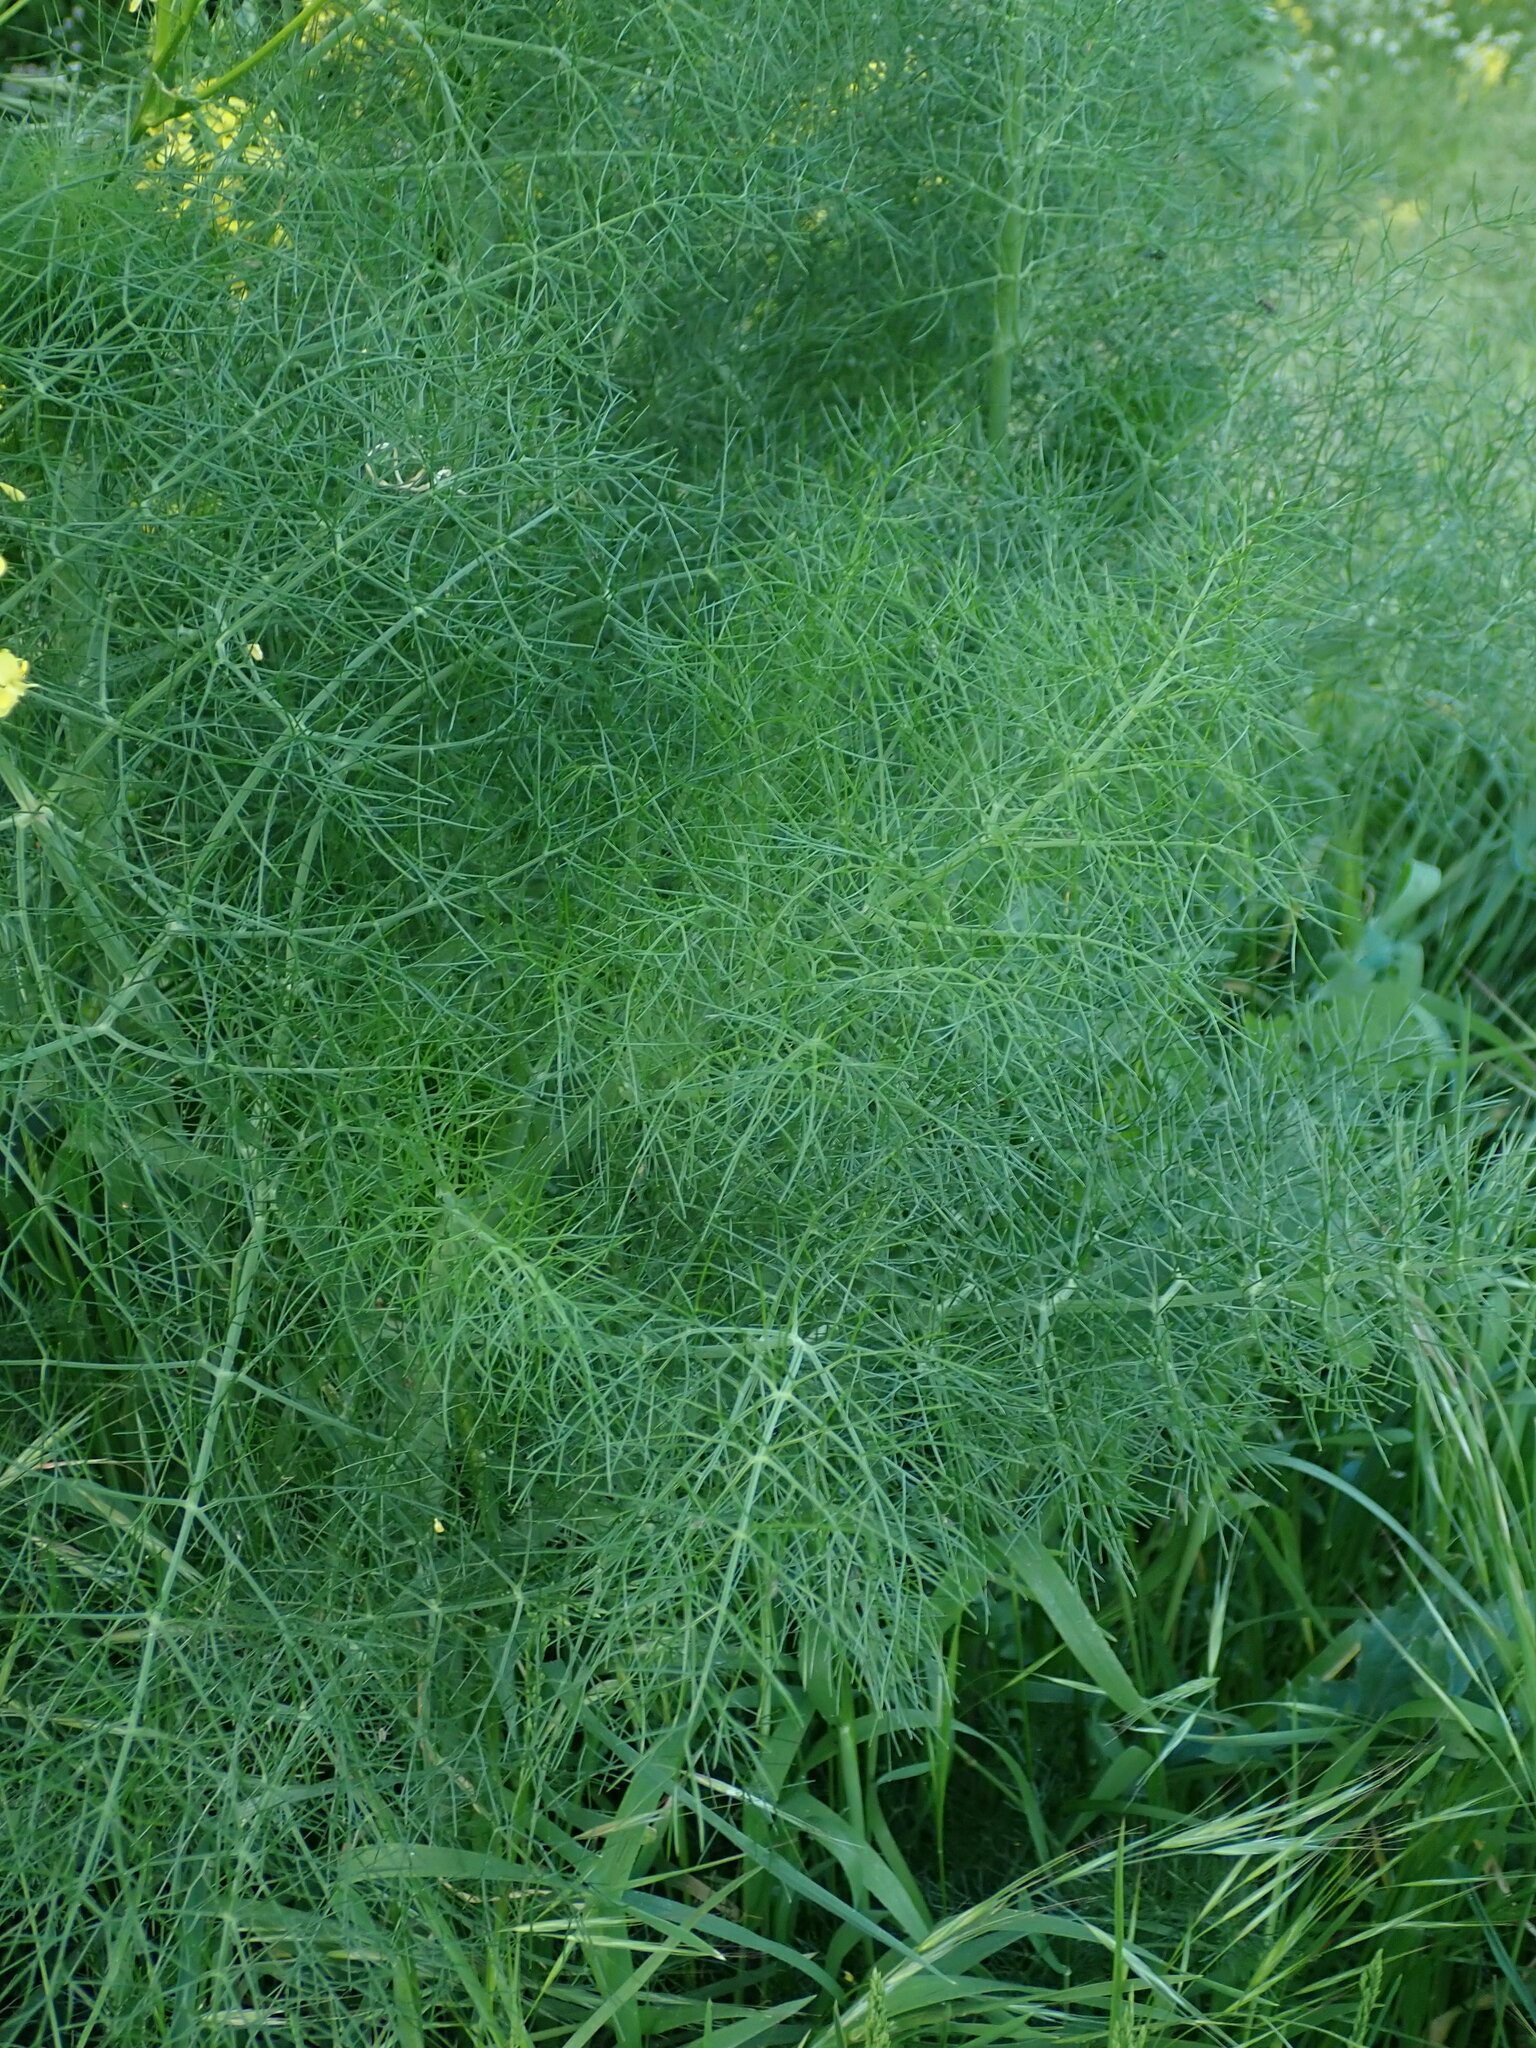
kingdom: Plantae
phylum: Tracheophyta
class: Magnoliopsida
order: Apiales
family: Apiaceae
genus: Foeniculum
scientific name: Foeniculum vulgare
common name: Fennel
